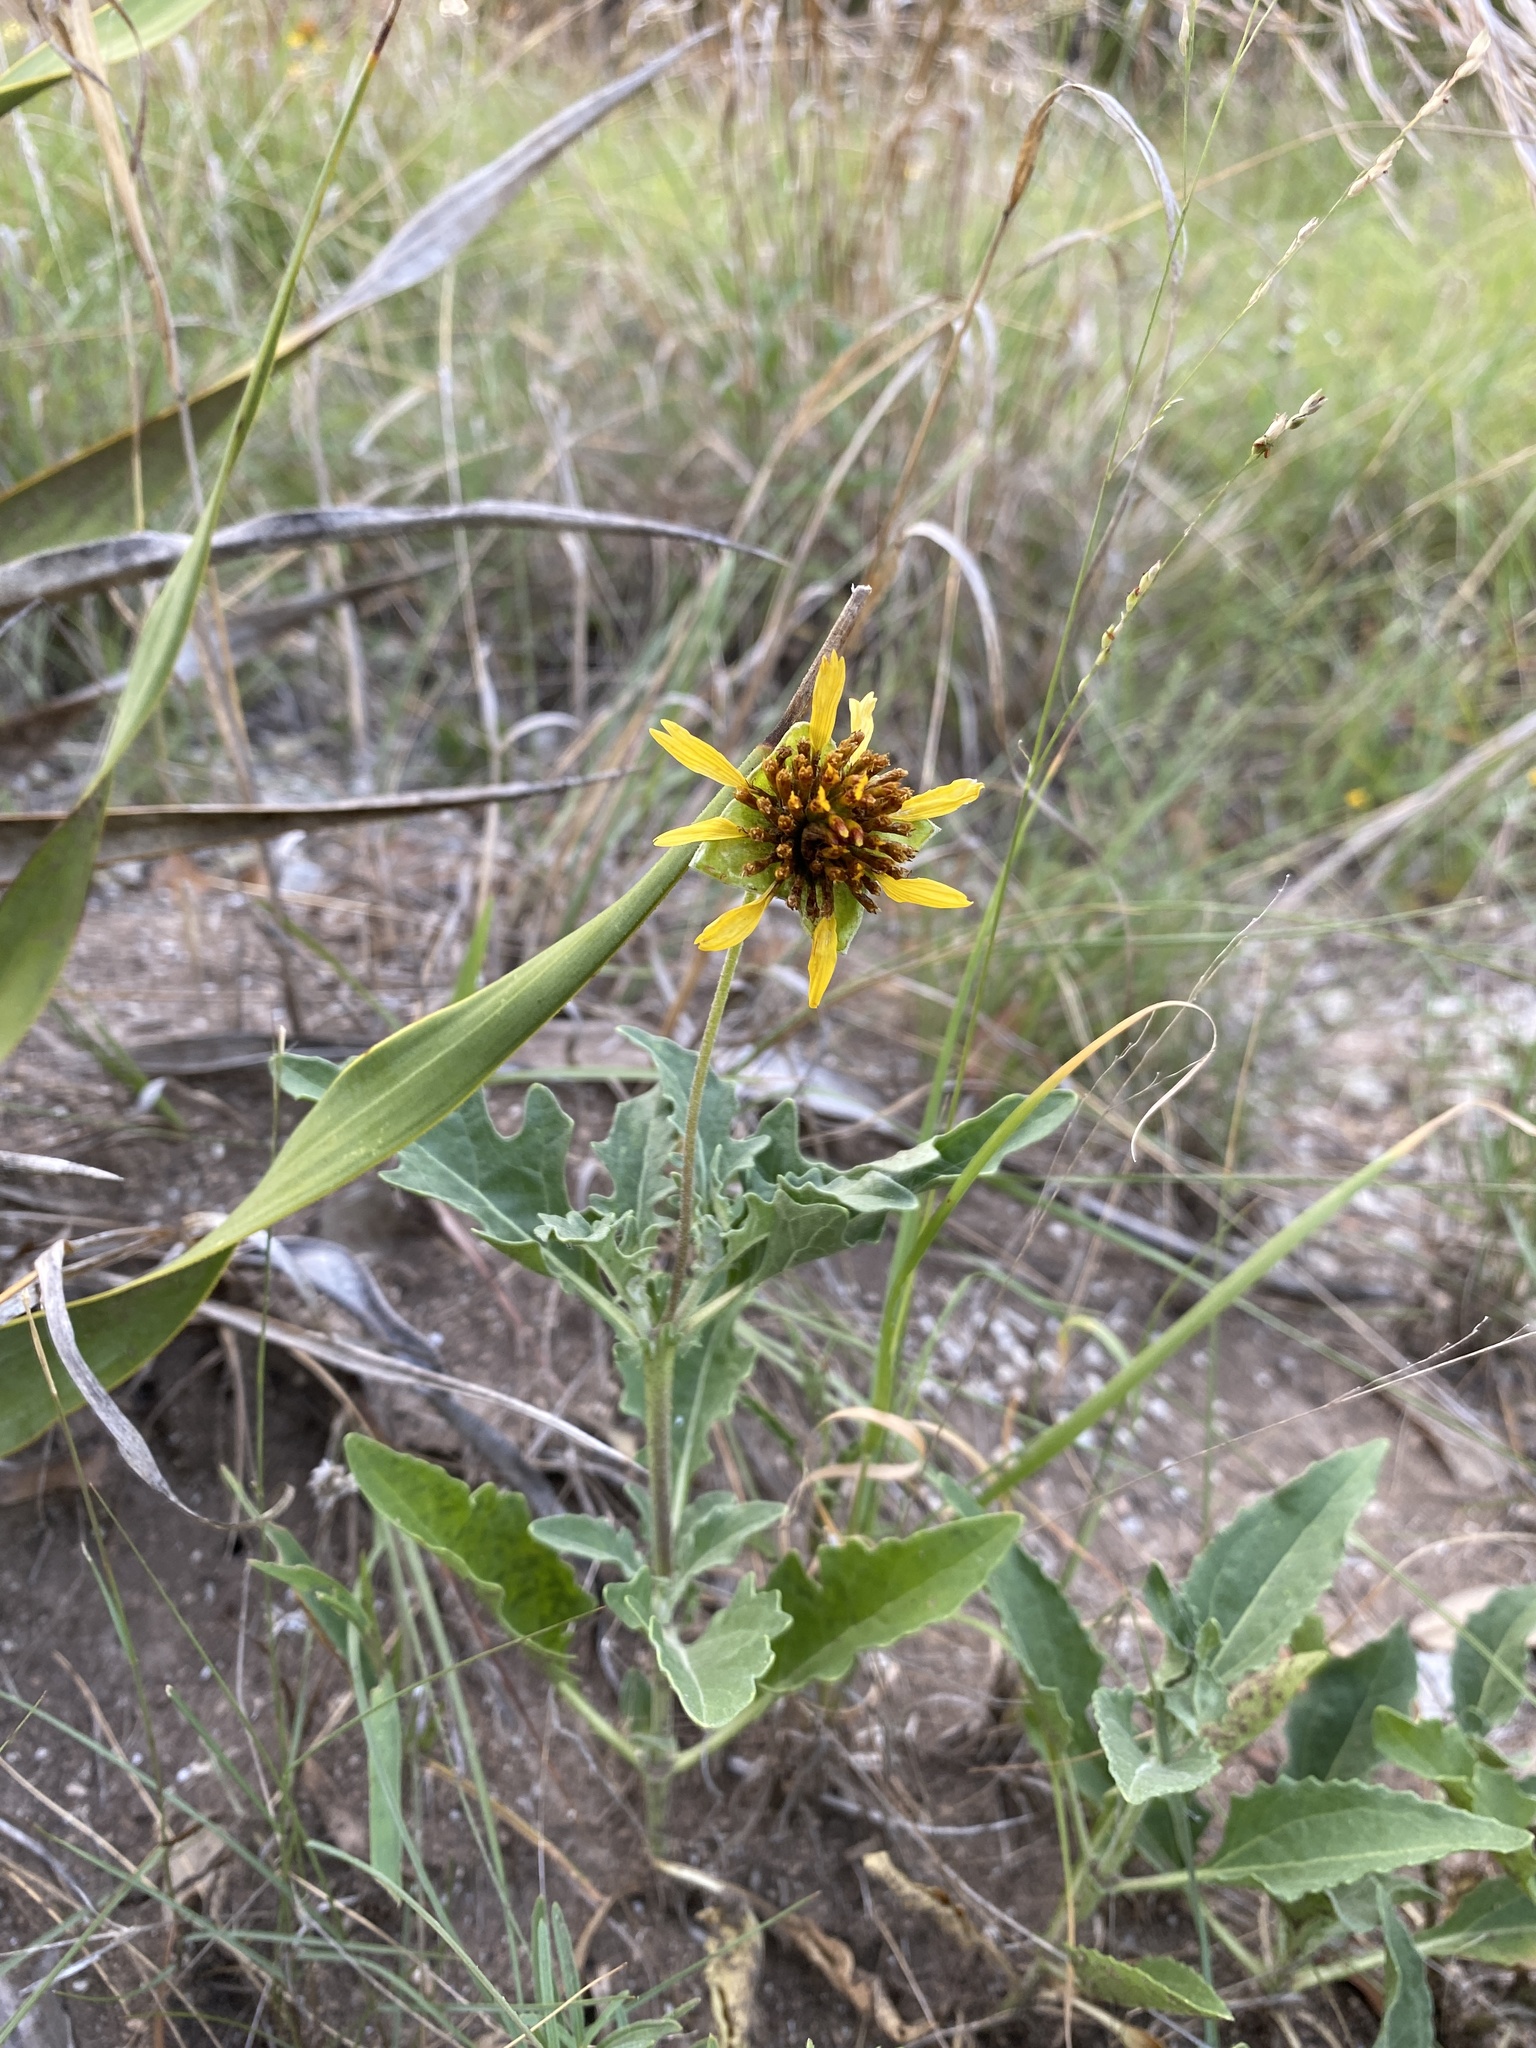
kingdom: Plantae
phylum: Tracheophyta
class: Magnoliopsida
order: Asterales
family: Asteraceae
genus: Tetragonotheca
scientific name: Tetragonotheca texana
